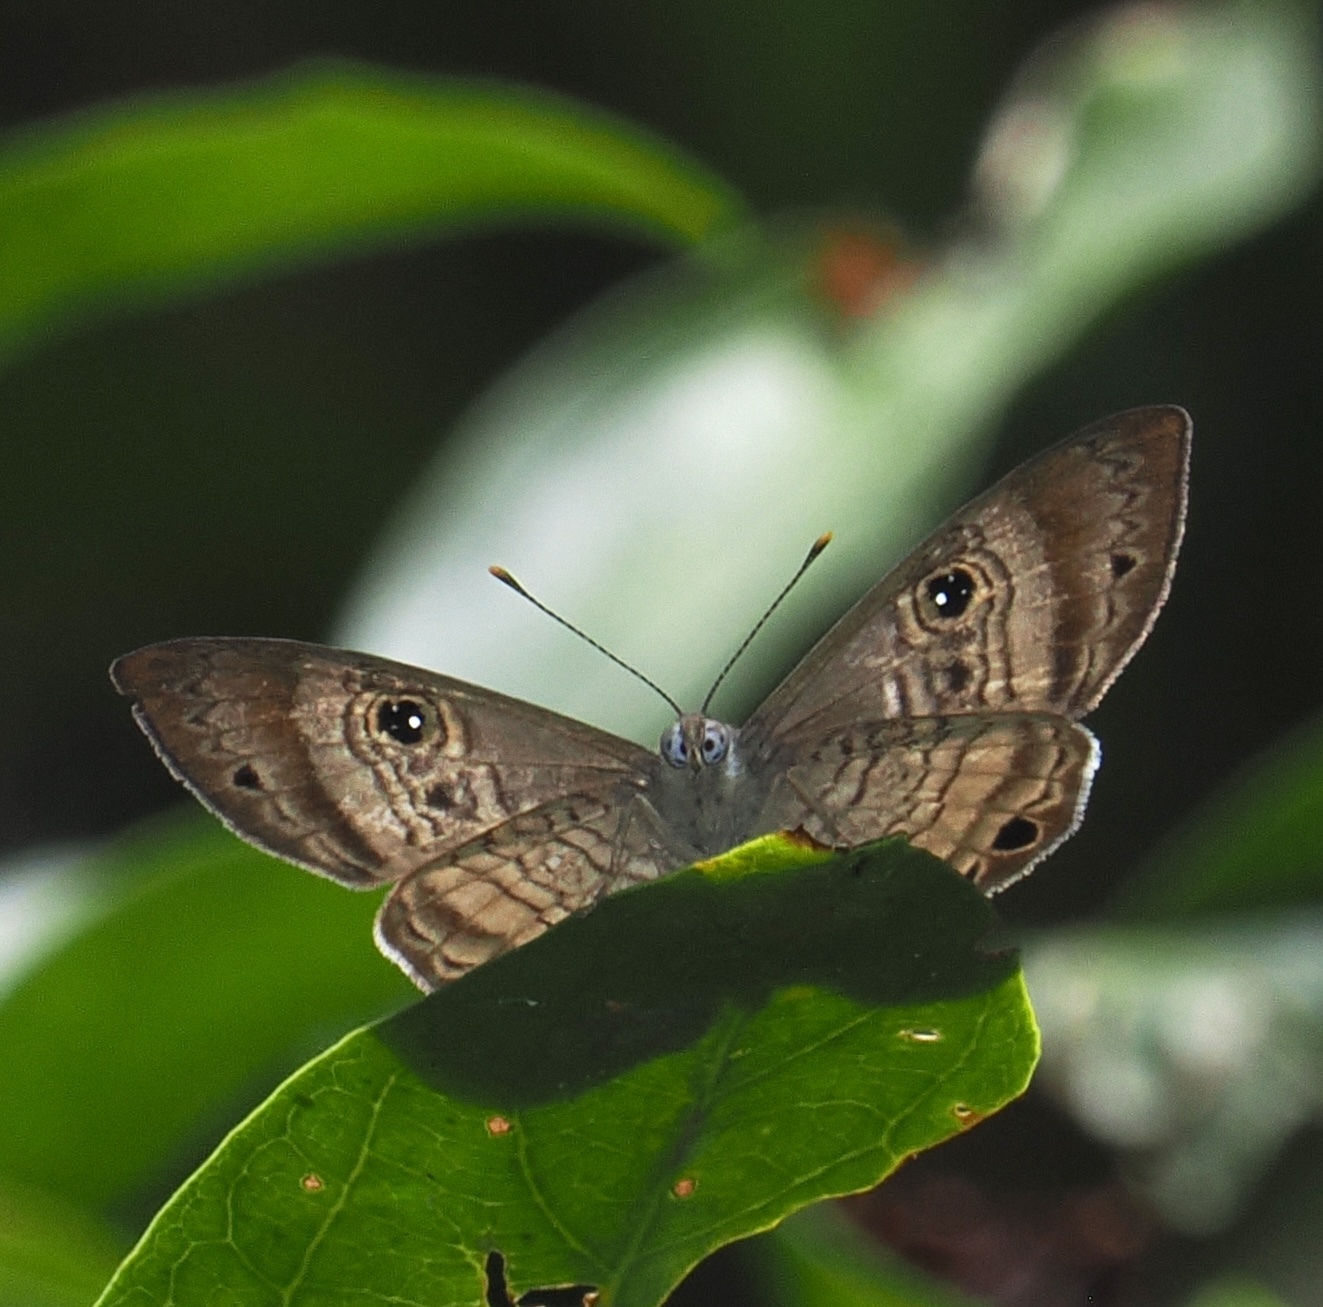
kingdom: Animalia
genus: Mesosemia
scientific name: Mesosemia odice
